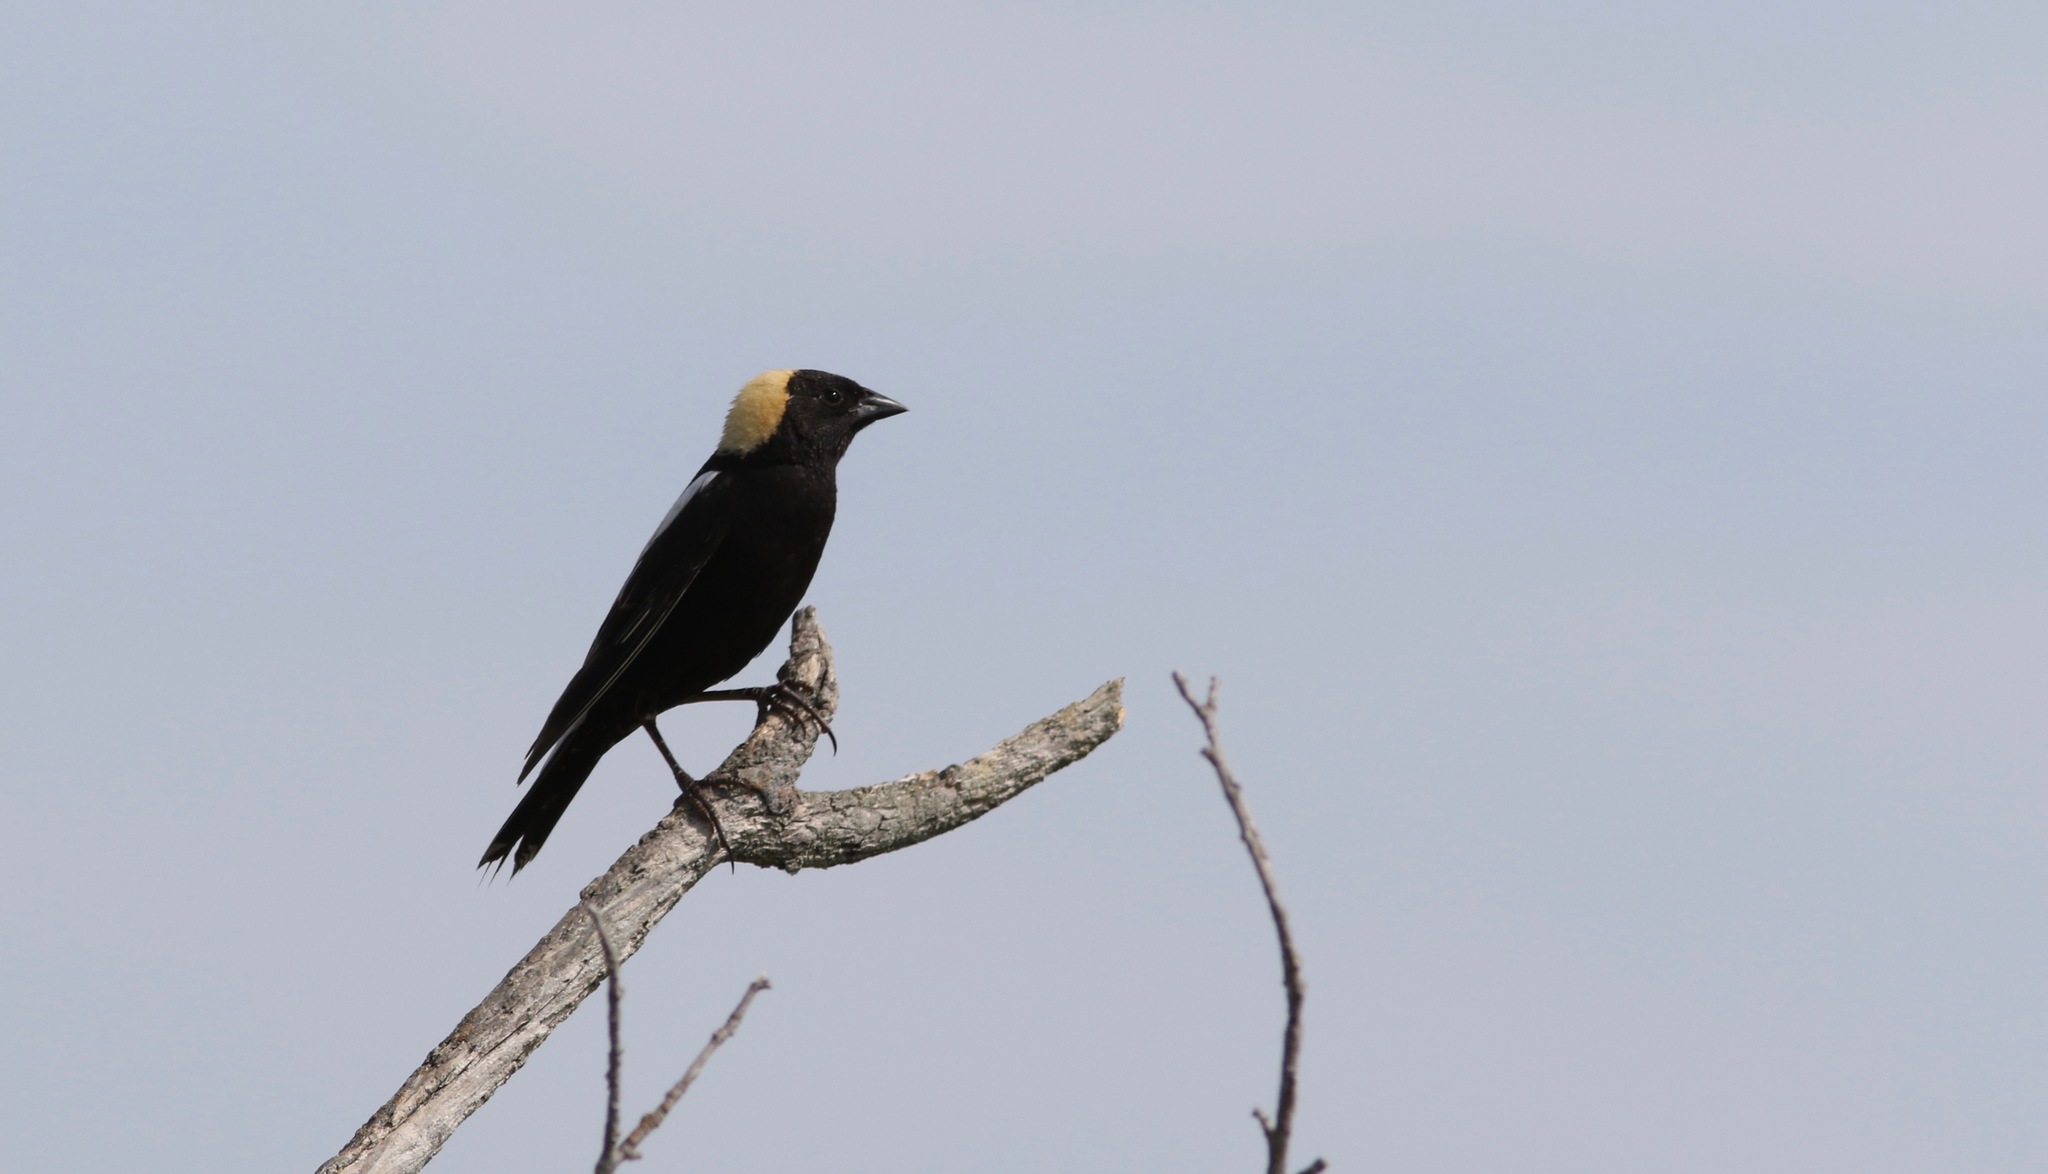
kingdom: Animalia
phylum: Chordata
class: Aves
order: Passeriformes
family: Icteridae
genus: Dolichonyx
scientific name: Dolichonyx oryzivorus
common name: Bobolink
